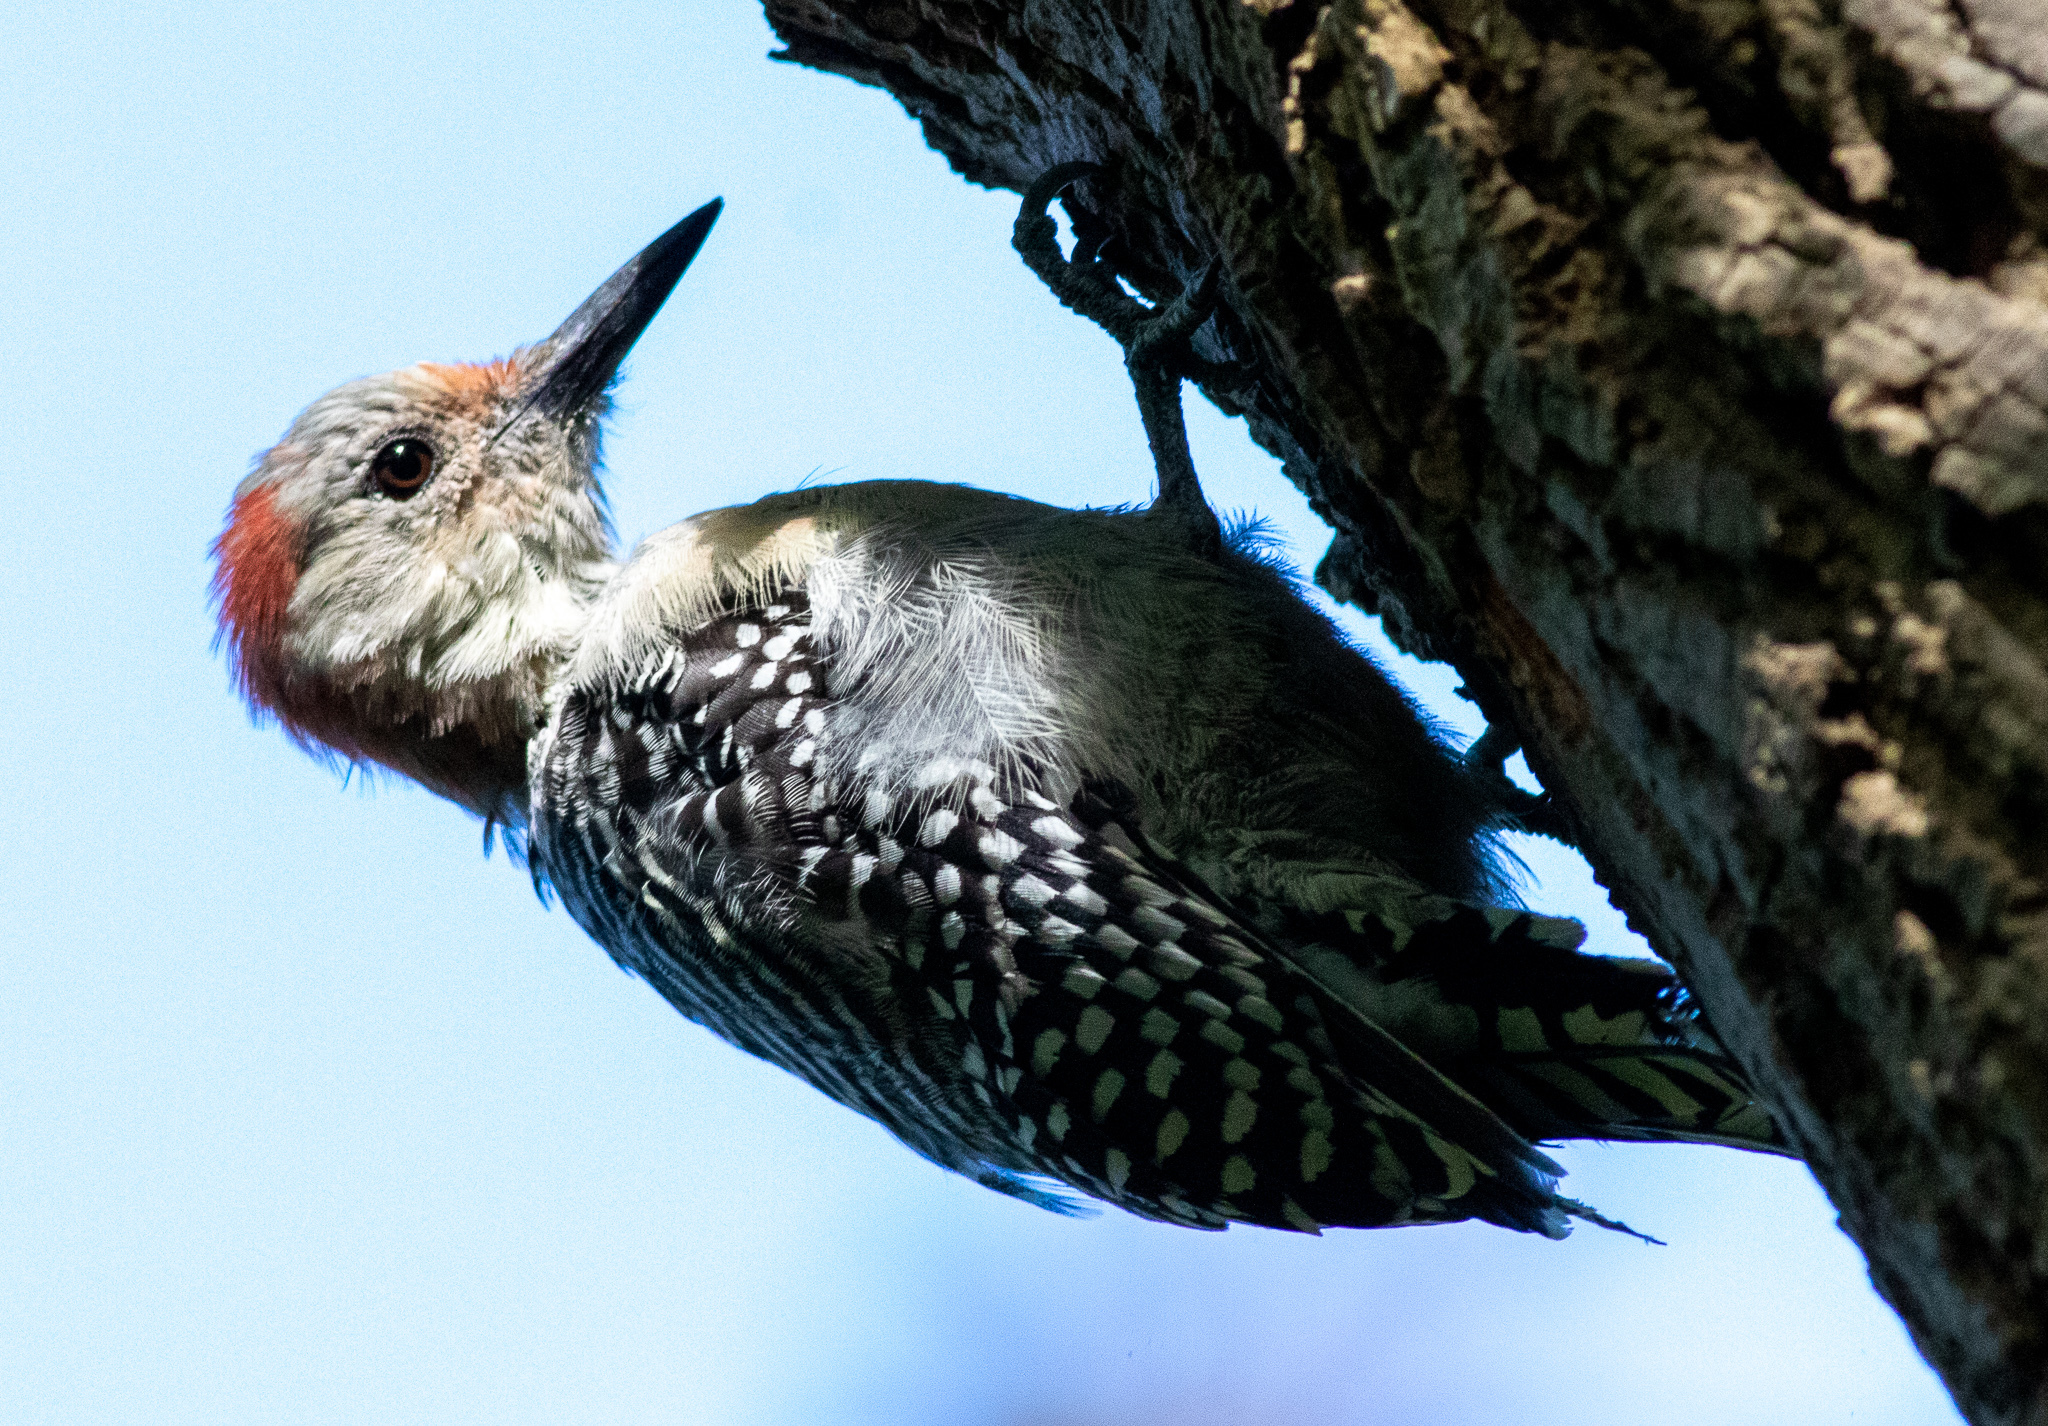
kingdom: Animalia
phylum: Chordata
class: Aves
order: Piciformes
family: Picidae
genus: Melanerpes
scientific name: Melanerpes carolinus
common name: Red-bellied woodpecker
